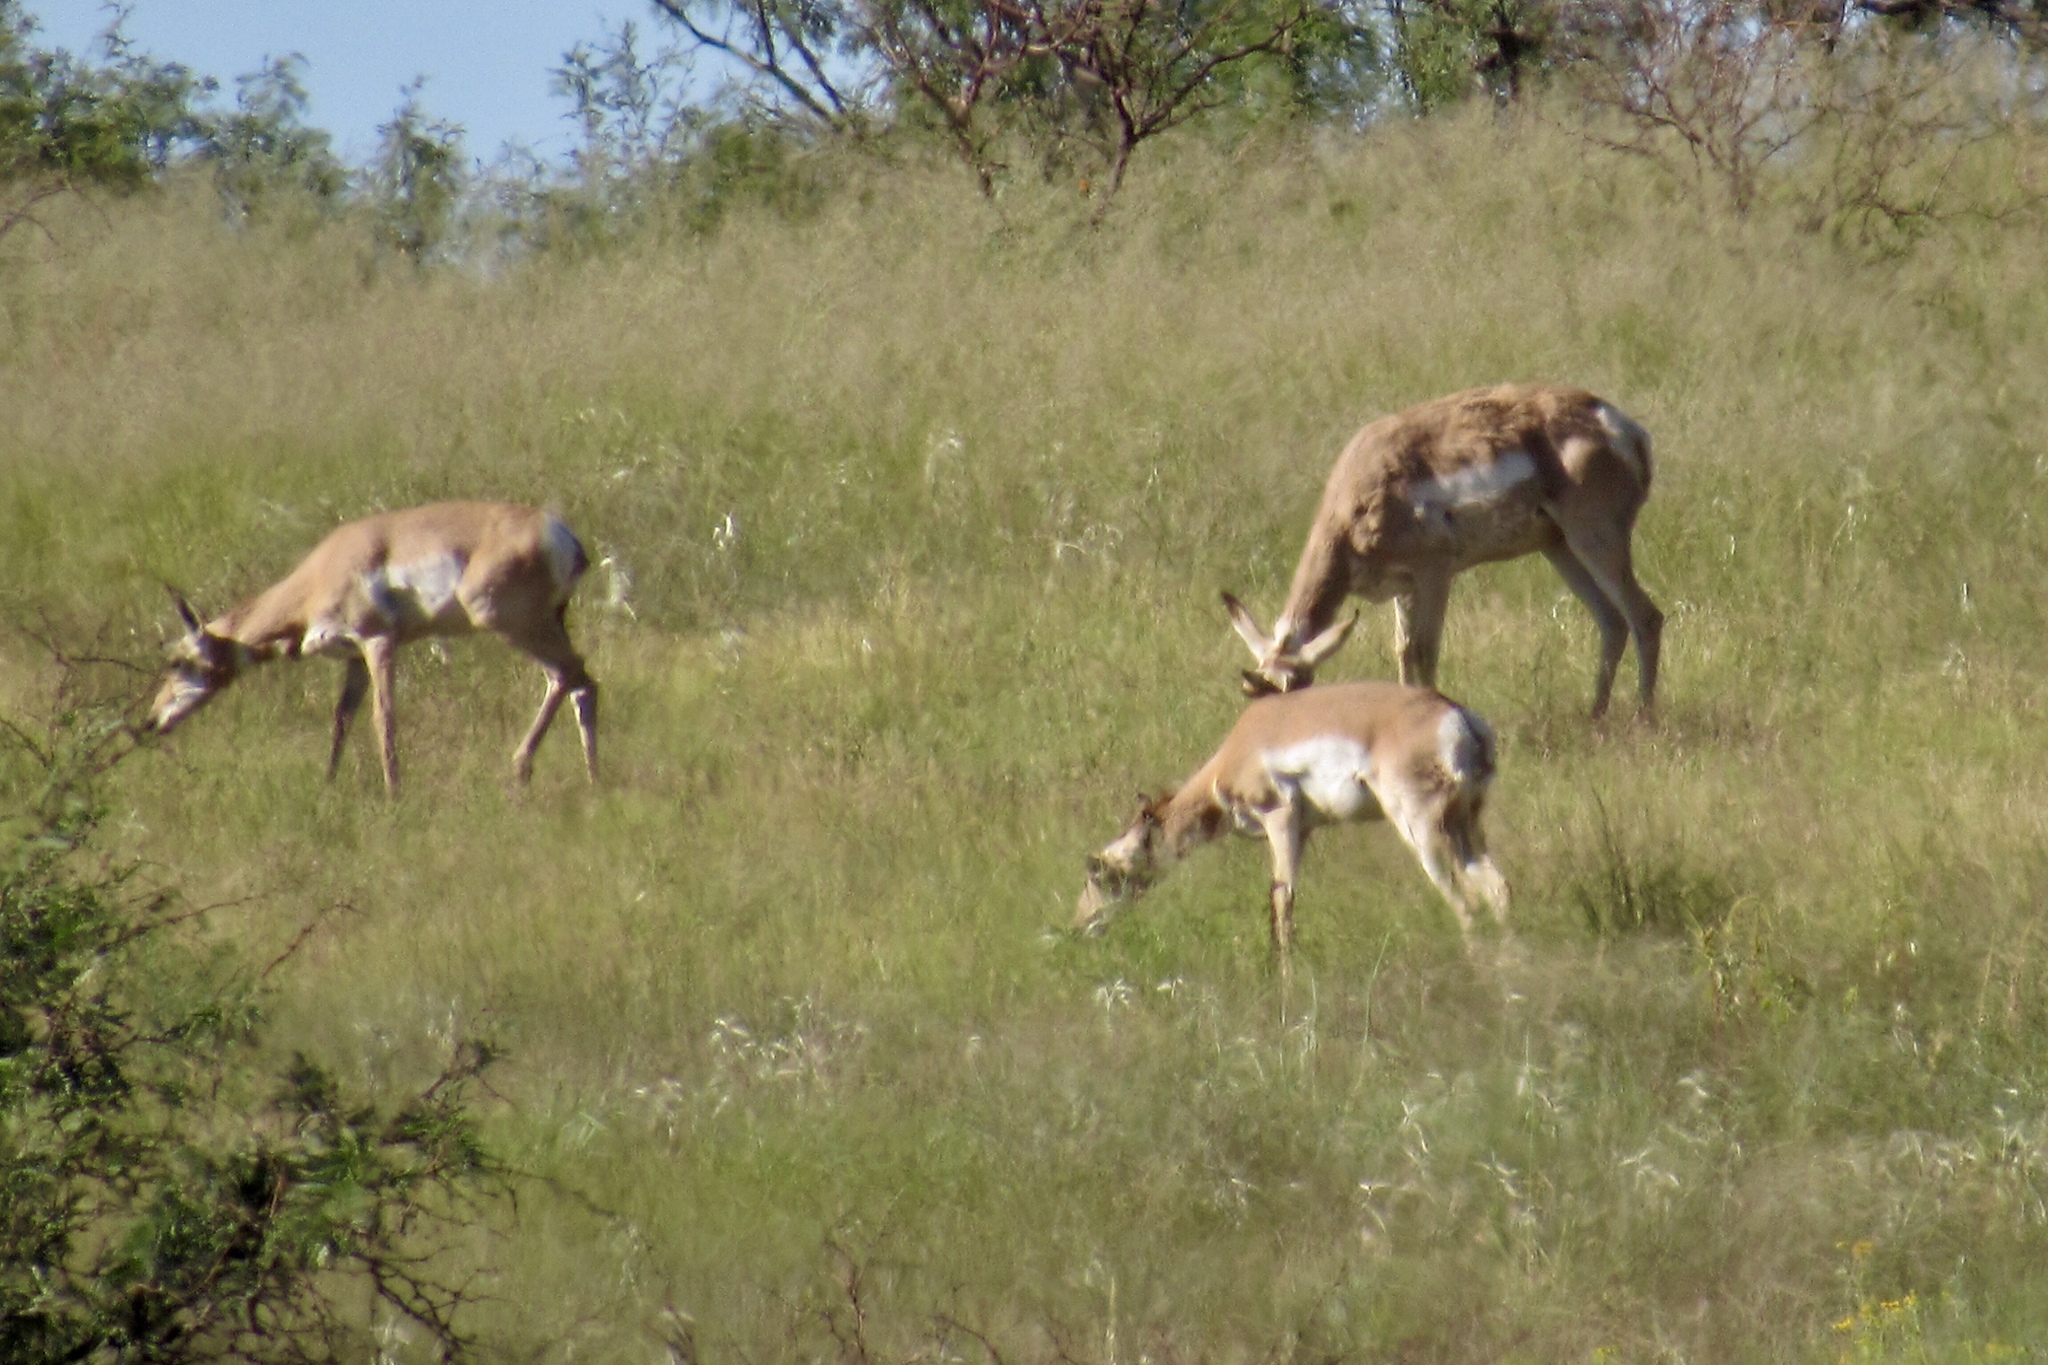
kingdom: Animalia
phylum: Chordata
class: Mammalia
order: Artiodactyla
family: Antilocapridae
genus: Antilocapra
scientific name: Antilocapra americana
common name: Pronghorn
